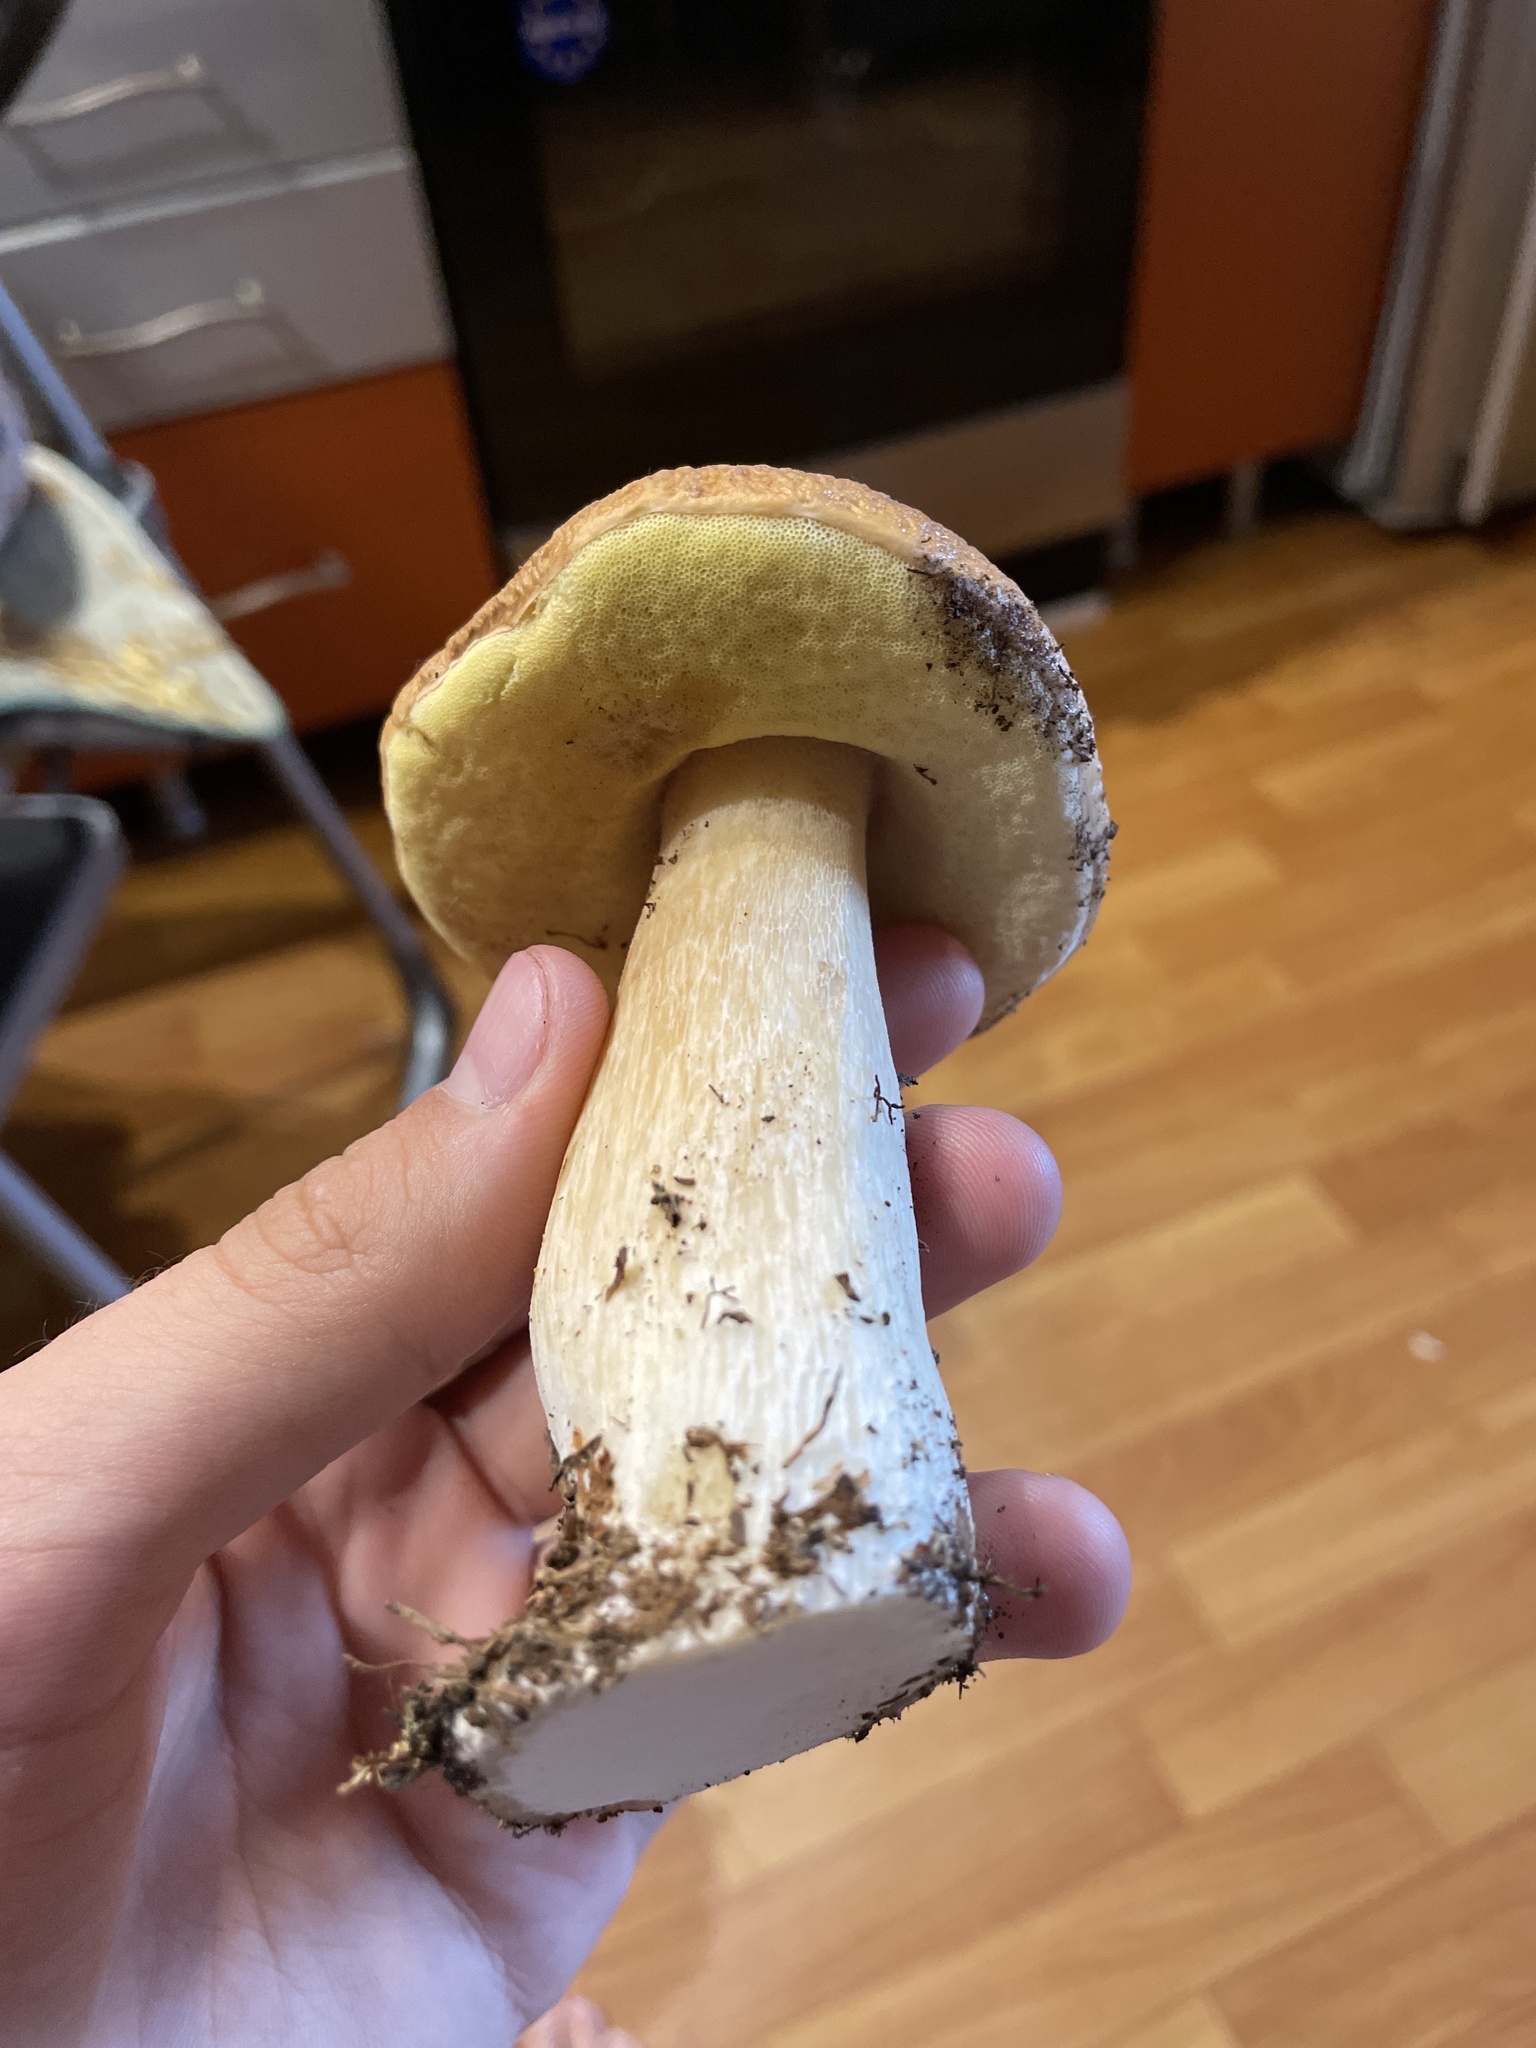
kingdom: Fungi
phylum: Basidiomycota
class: Agaricomycetes
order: Boletales
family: Boletaceae
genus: Boletus
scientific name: Boletus edulis
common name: Cep
